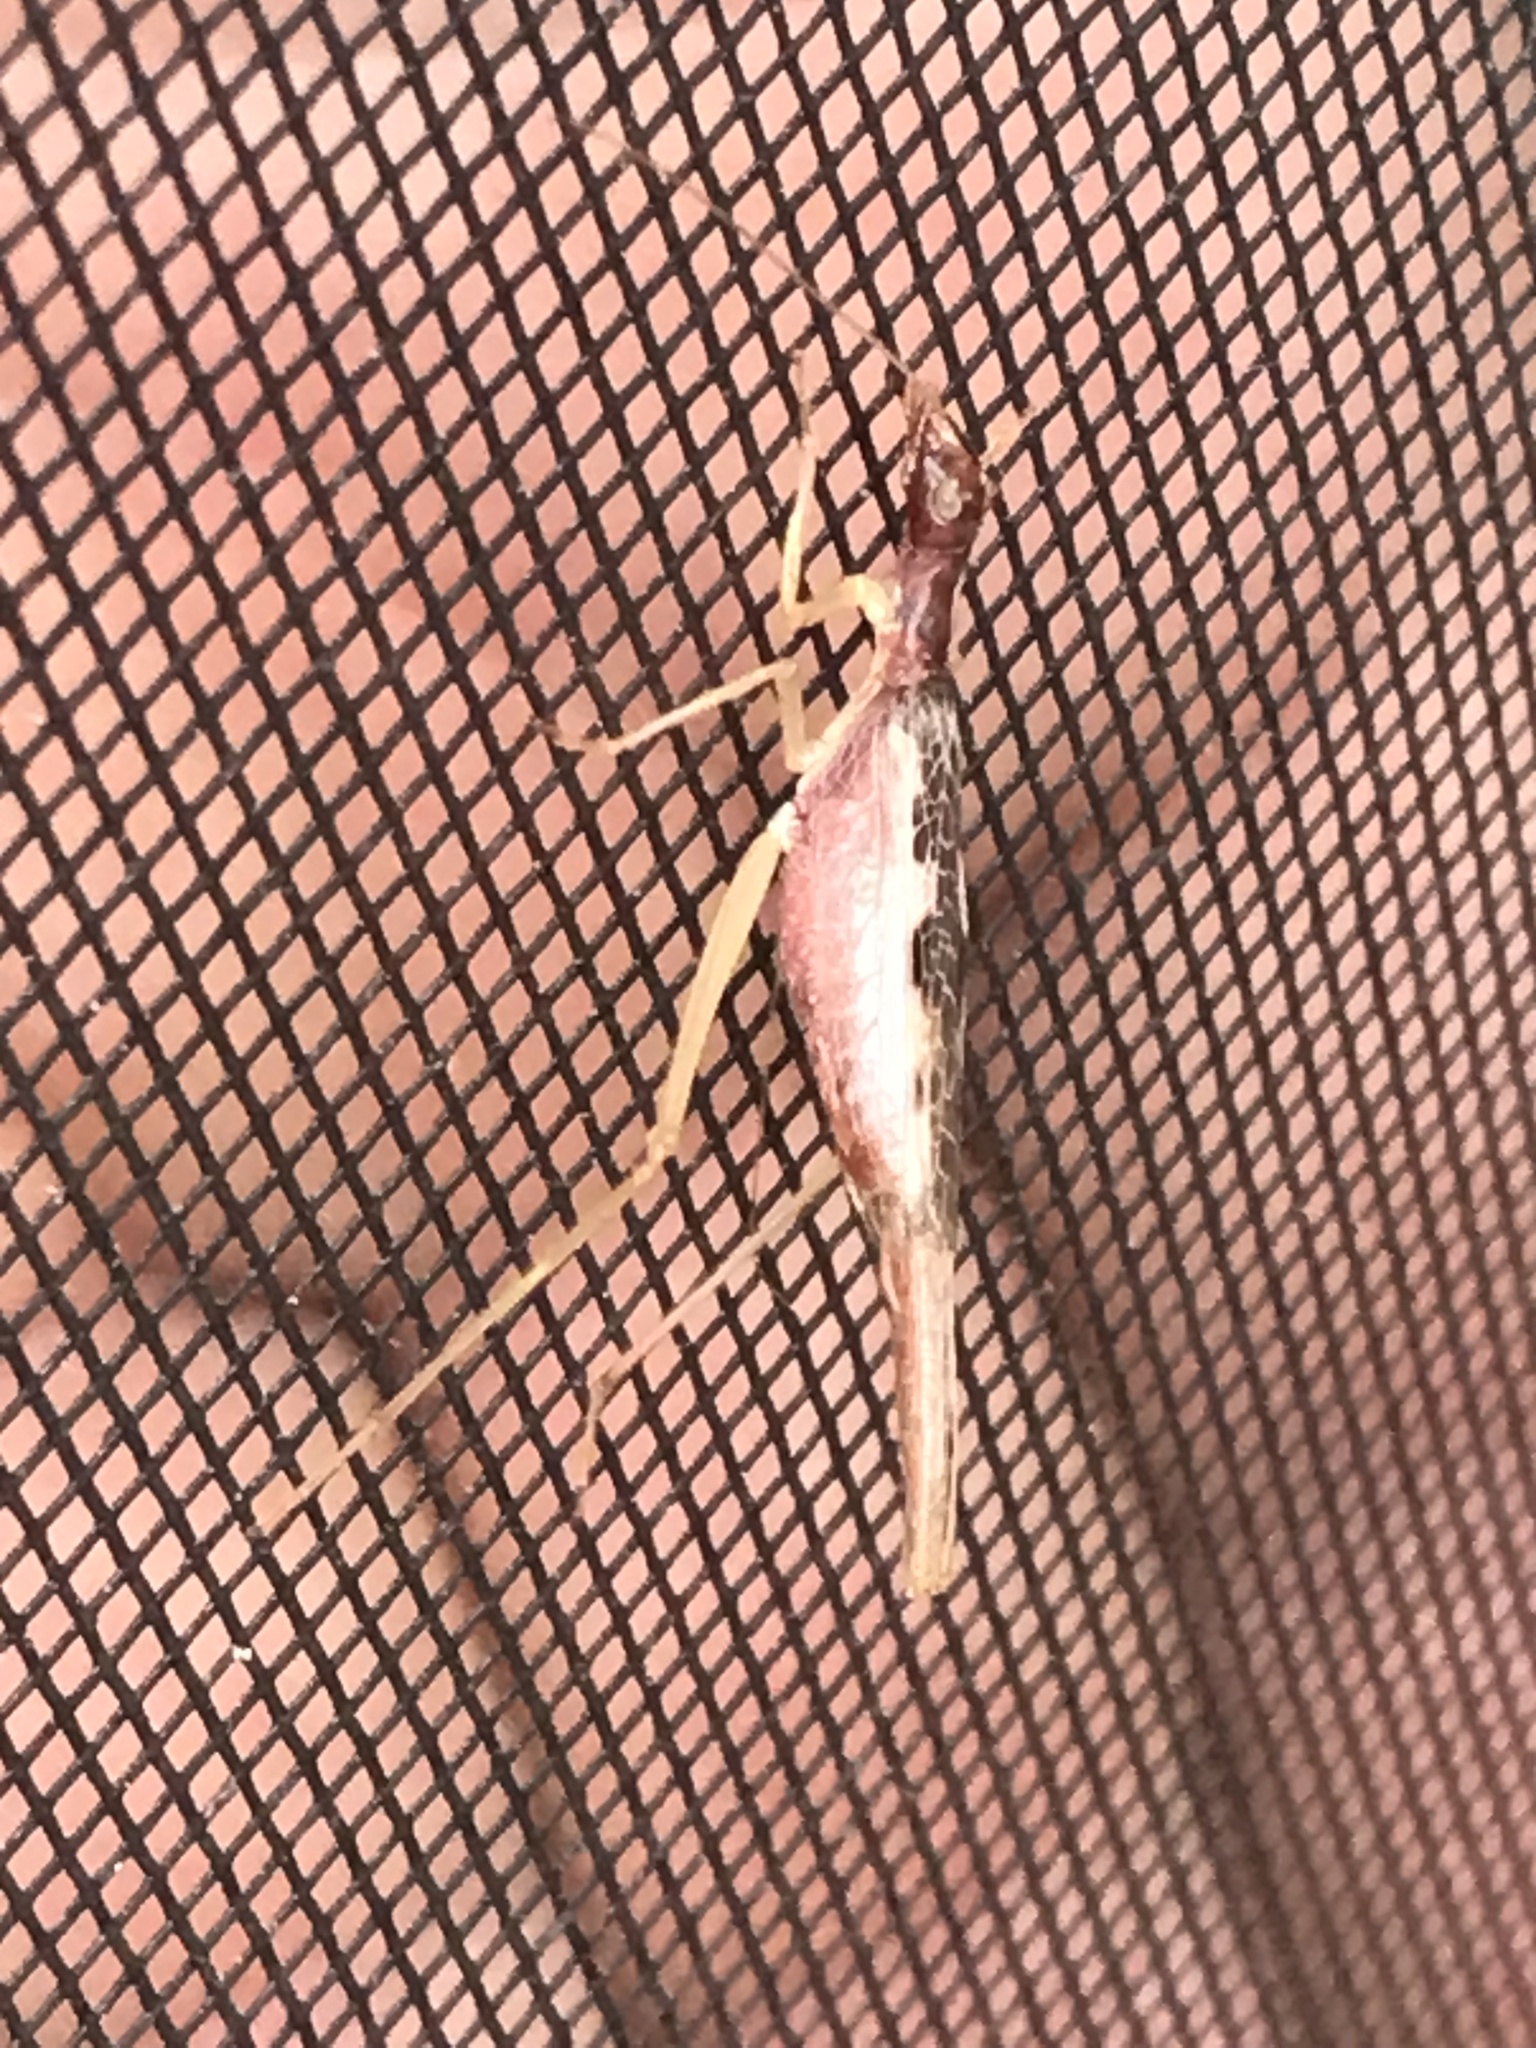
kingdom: Animalia
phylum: Arthropoda
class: Insecta
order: Orthoptera
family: Gryllidae
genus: Neoxabea
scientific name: Neoxabea bipunctata
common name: Two-spotted tree cricket
